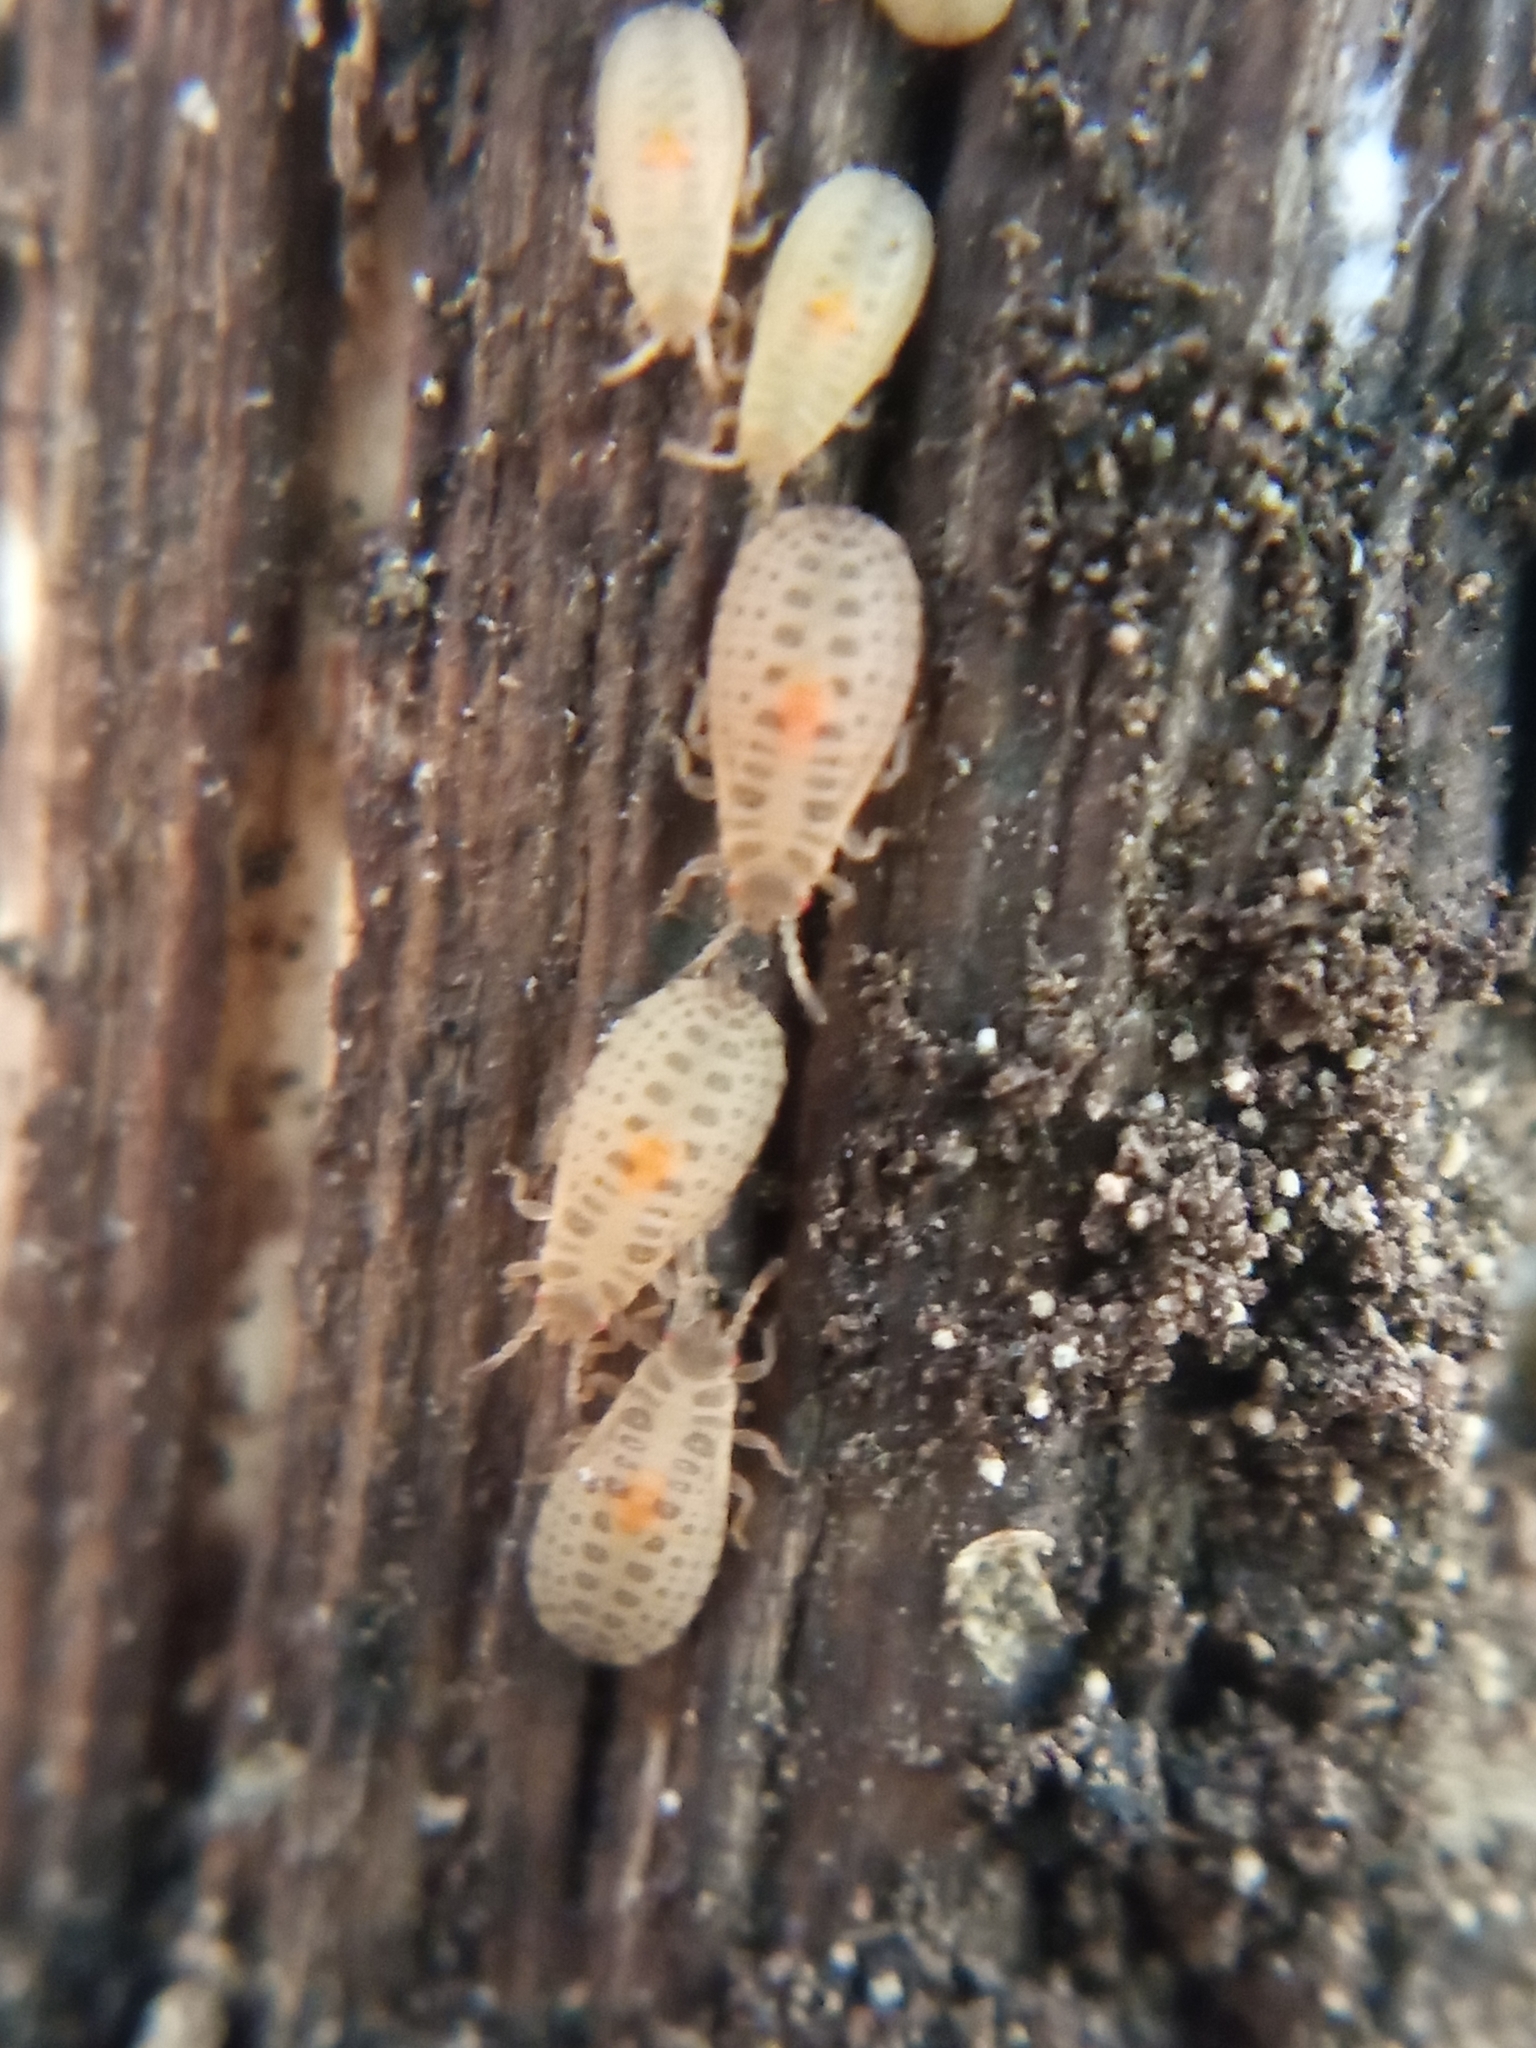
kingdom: Animalia
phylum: Arthropoda
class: Insecta
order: Hemiptera
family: Aradidae
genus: Aneurus
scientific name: Aneurus laevis
